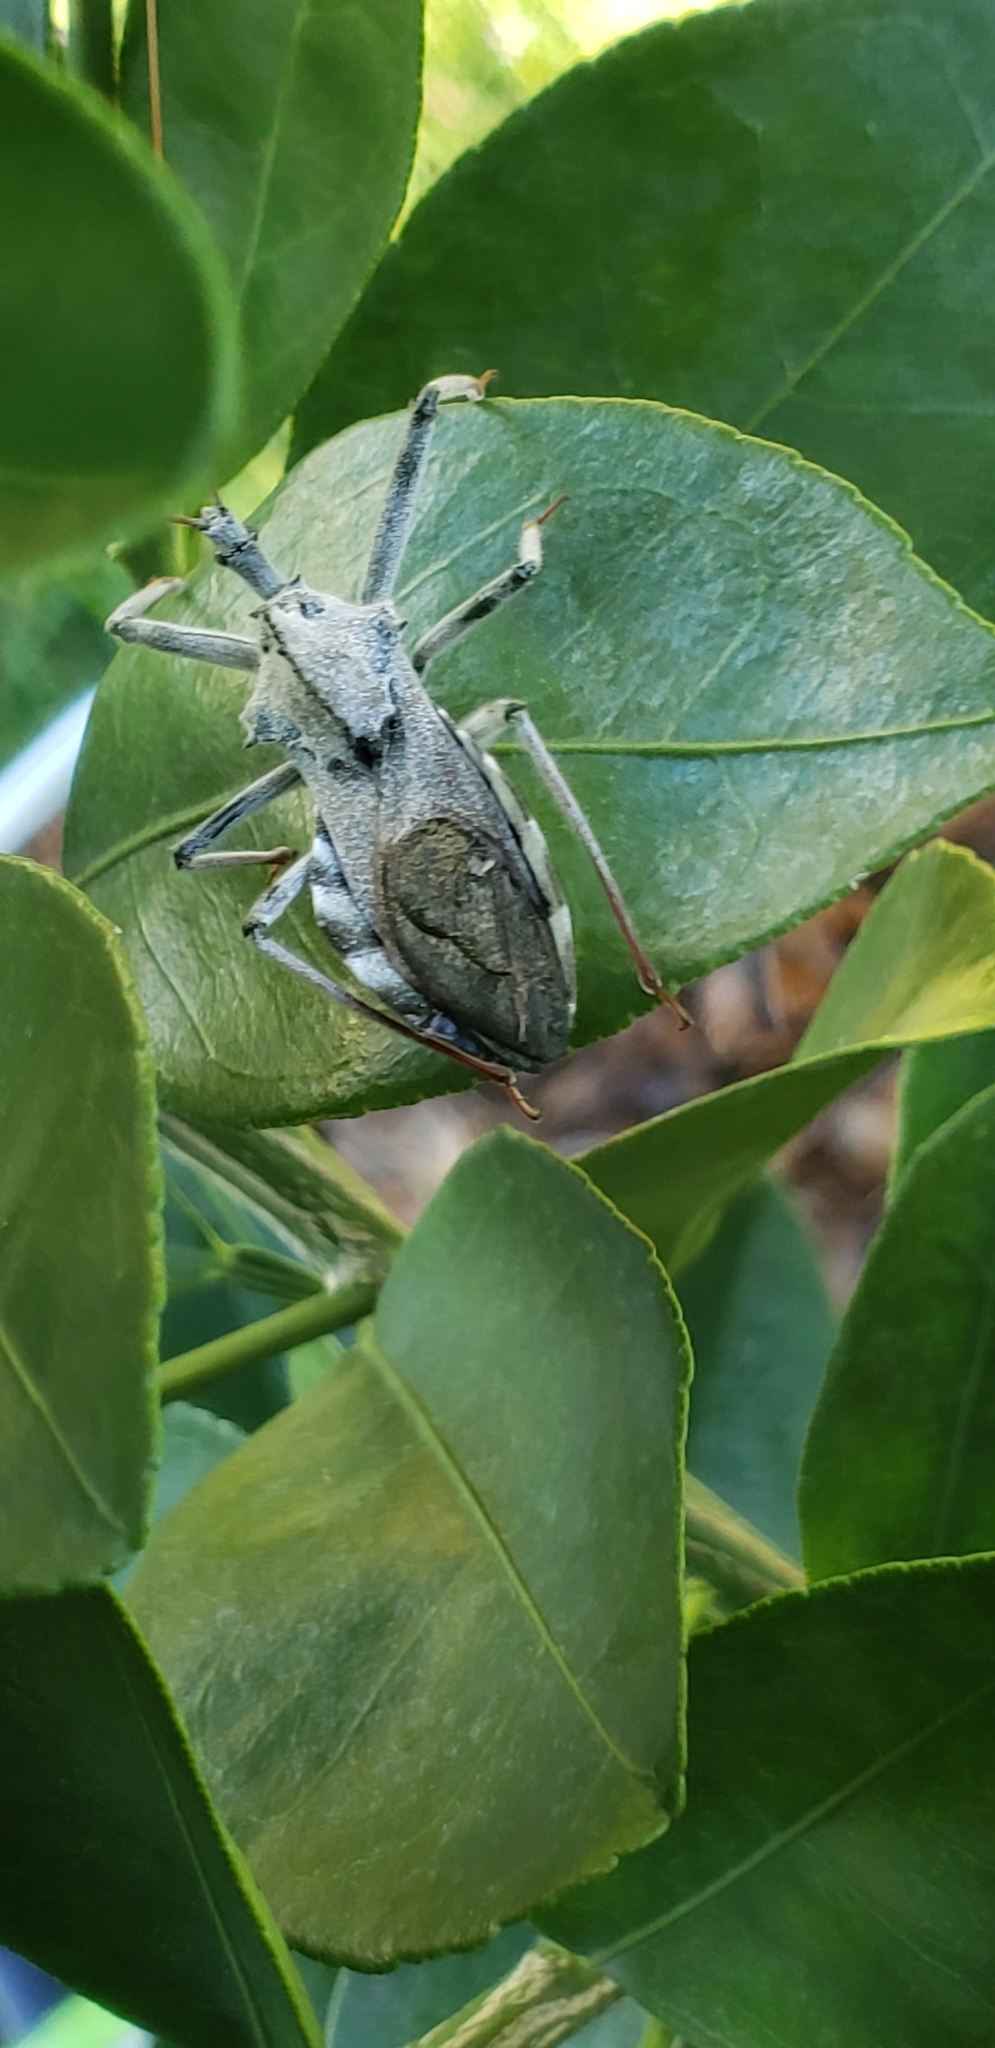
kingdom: Animalia
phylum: Arthropoda
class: Insecta
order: Hemiptera
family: Reduviidae
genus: Arilus
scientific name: Arilus cristatus
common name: North american wheel bug
